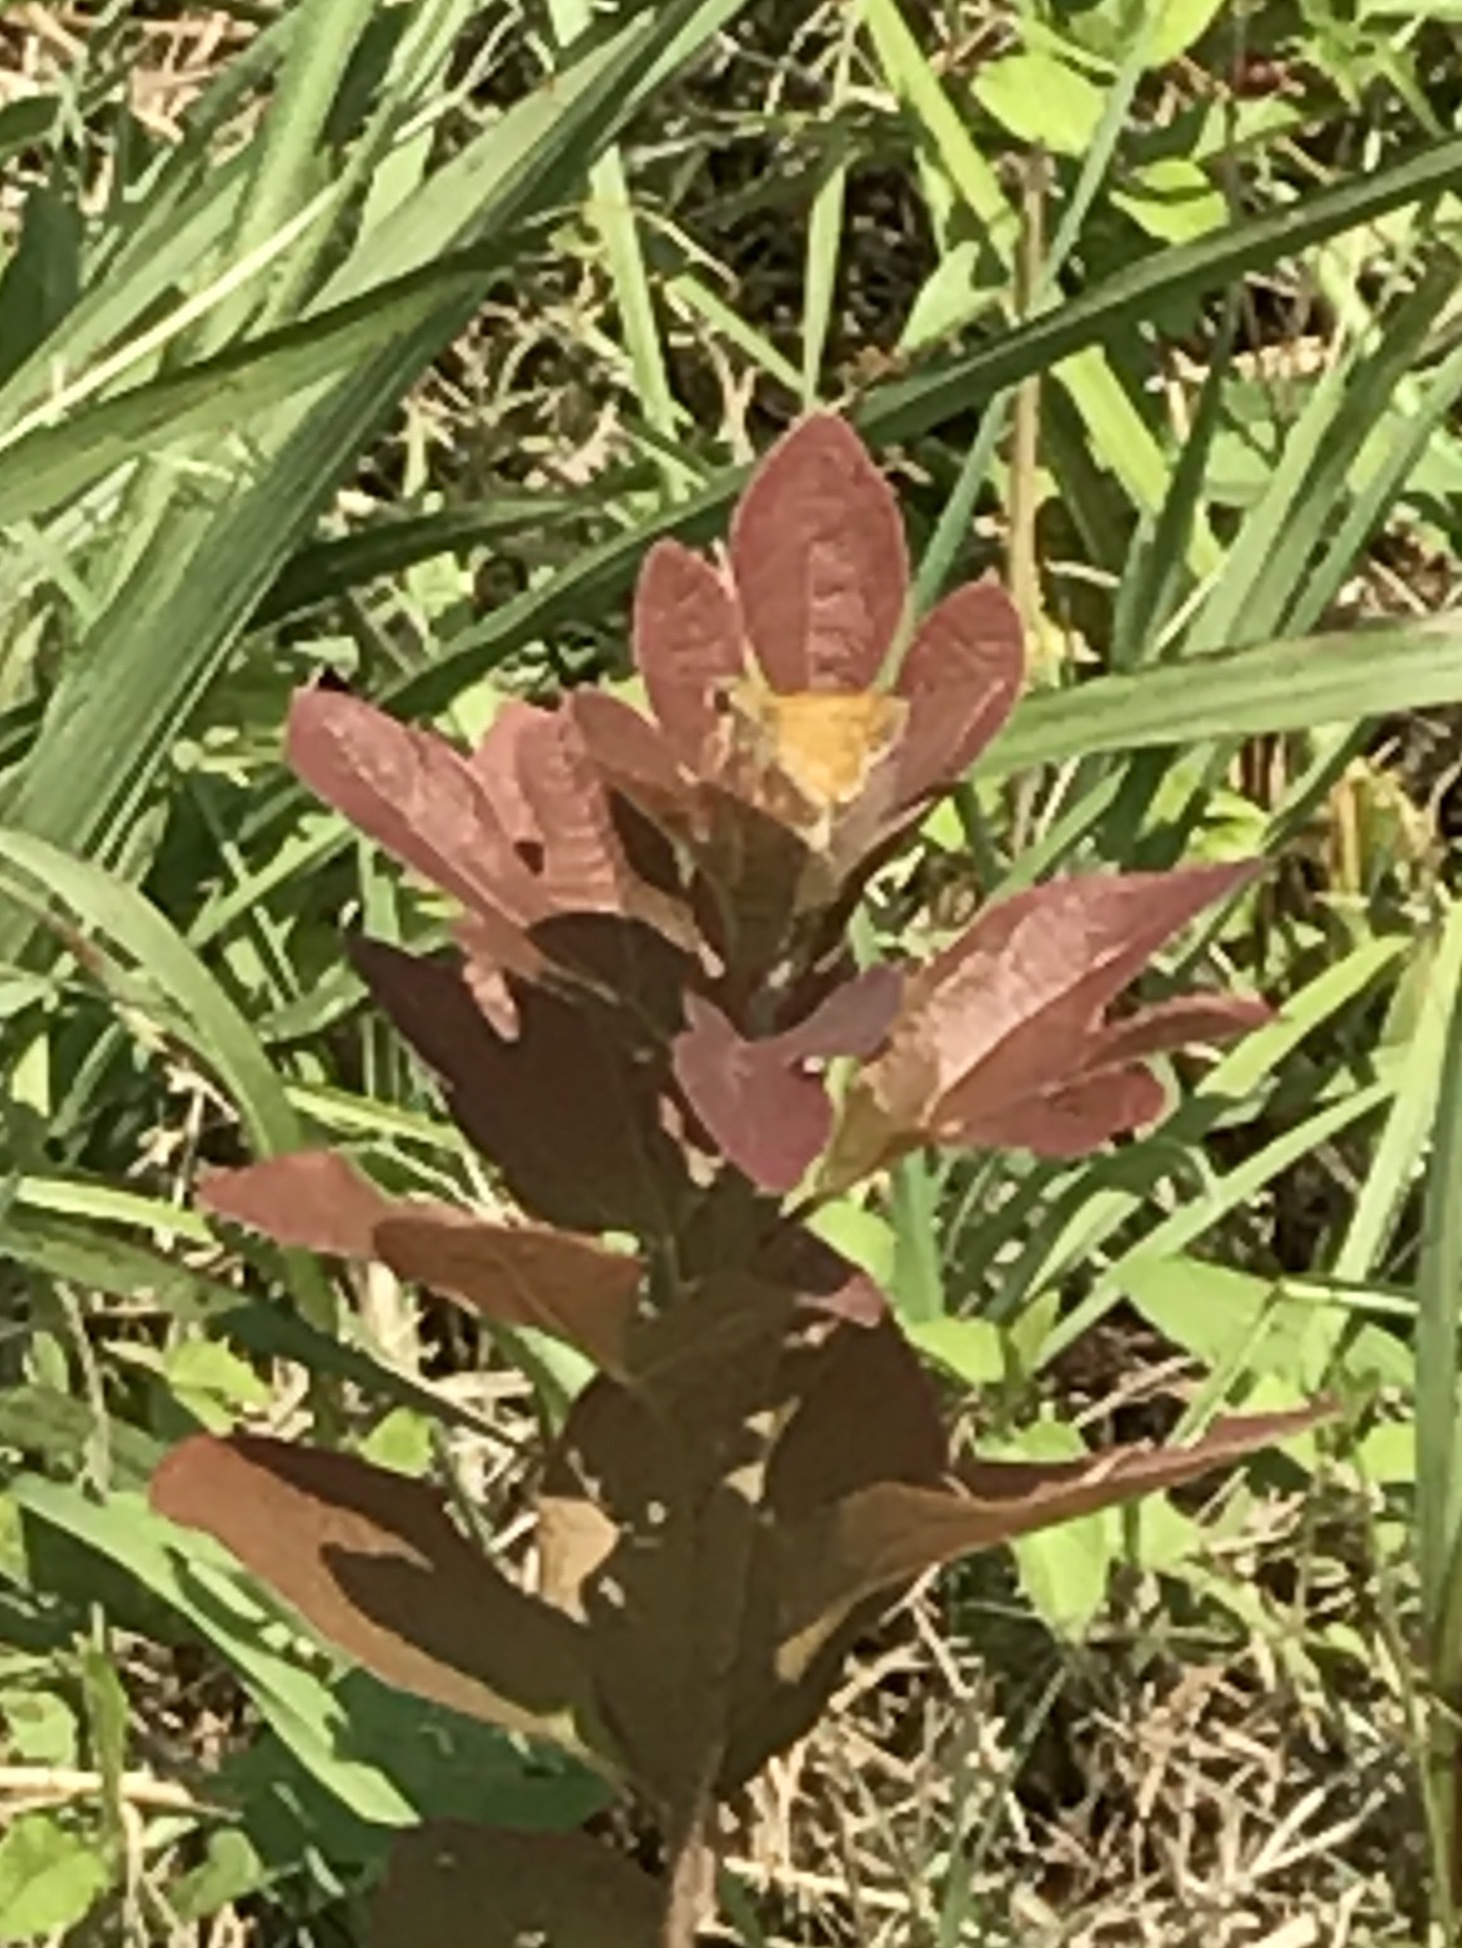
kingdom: Animalia
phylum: Arthropoda
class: Insecta
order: Lepidoptera
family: Hesperiidae
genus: Atalopedes
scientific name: Atalopedes
